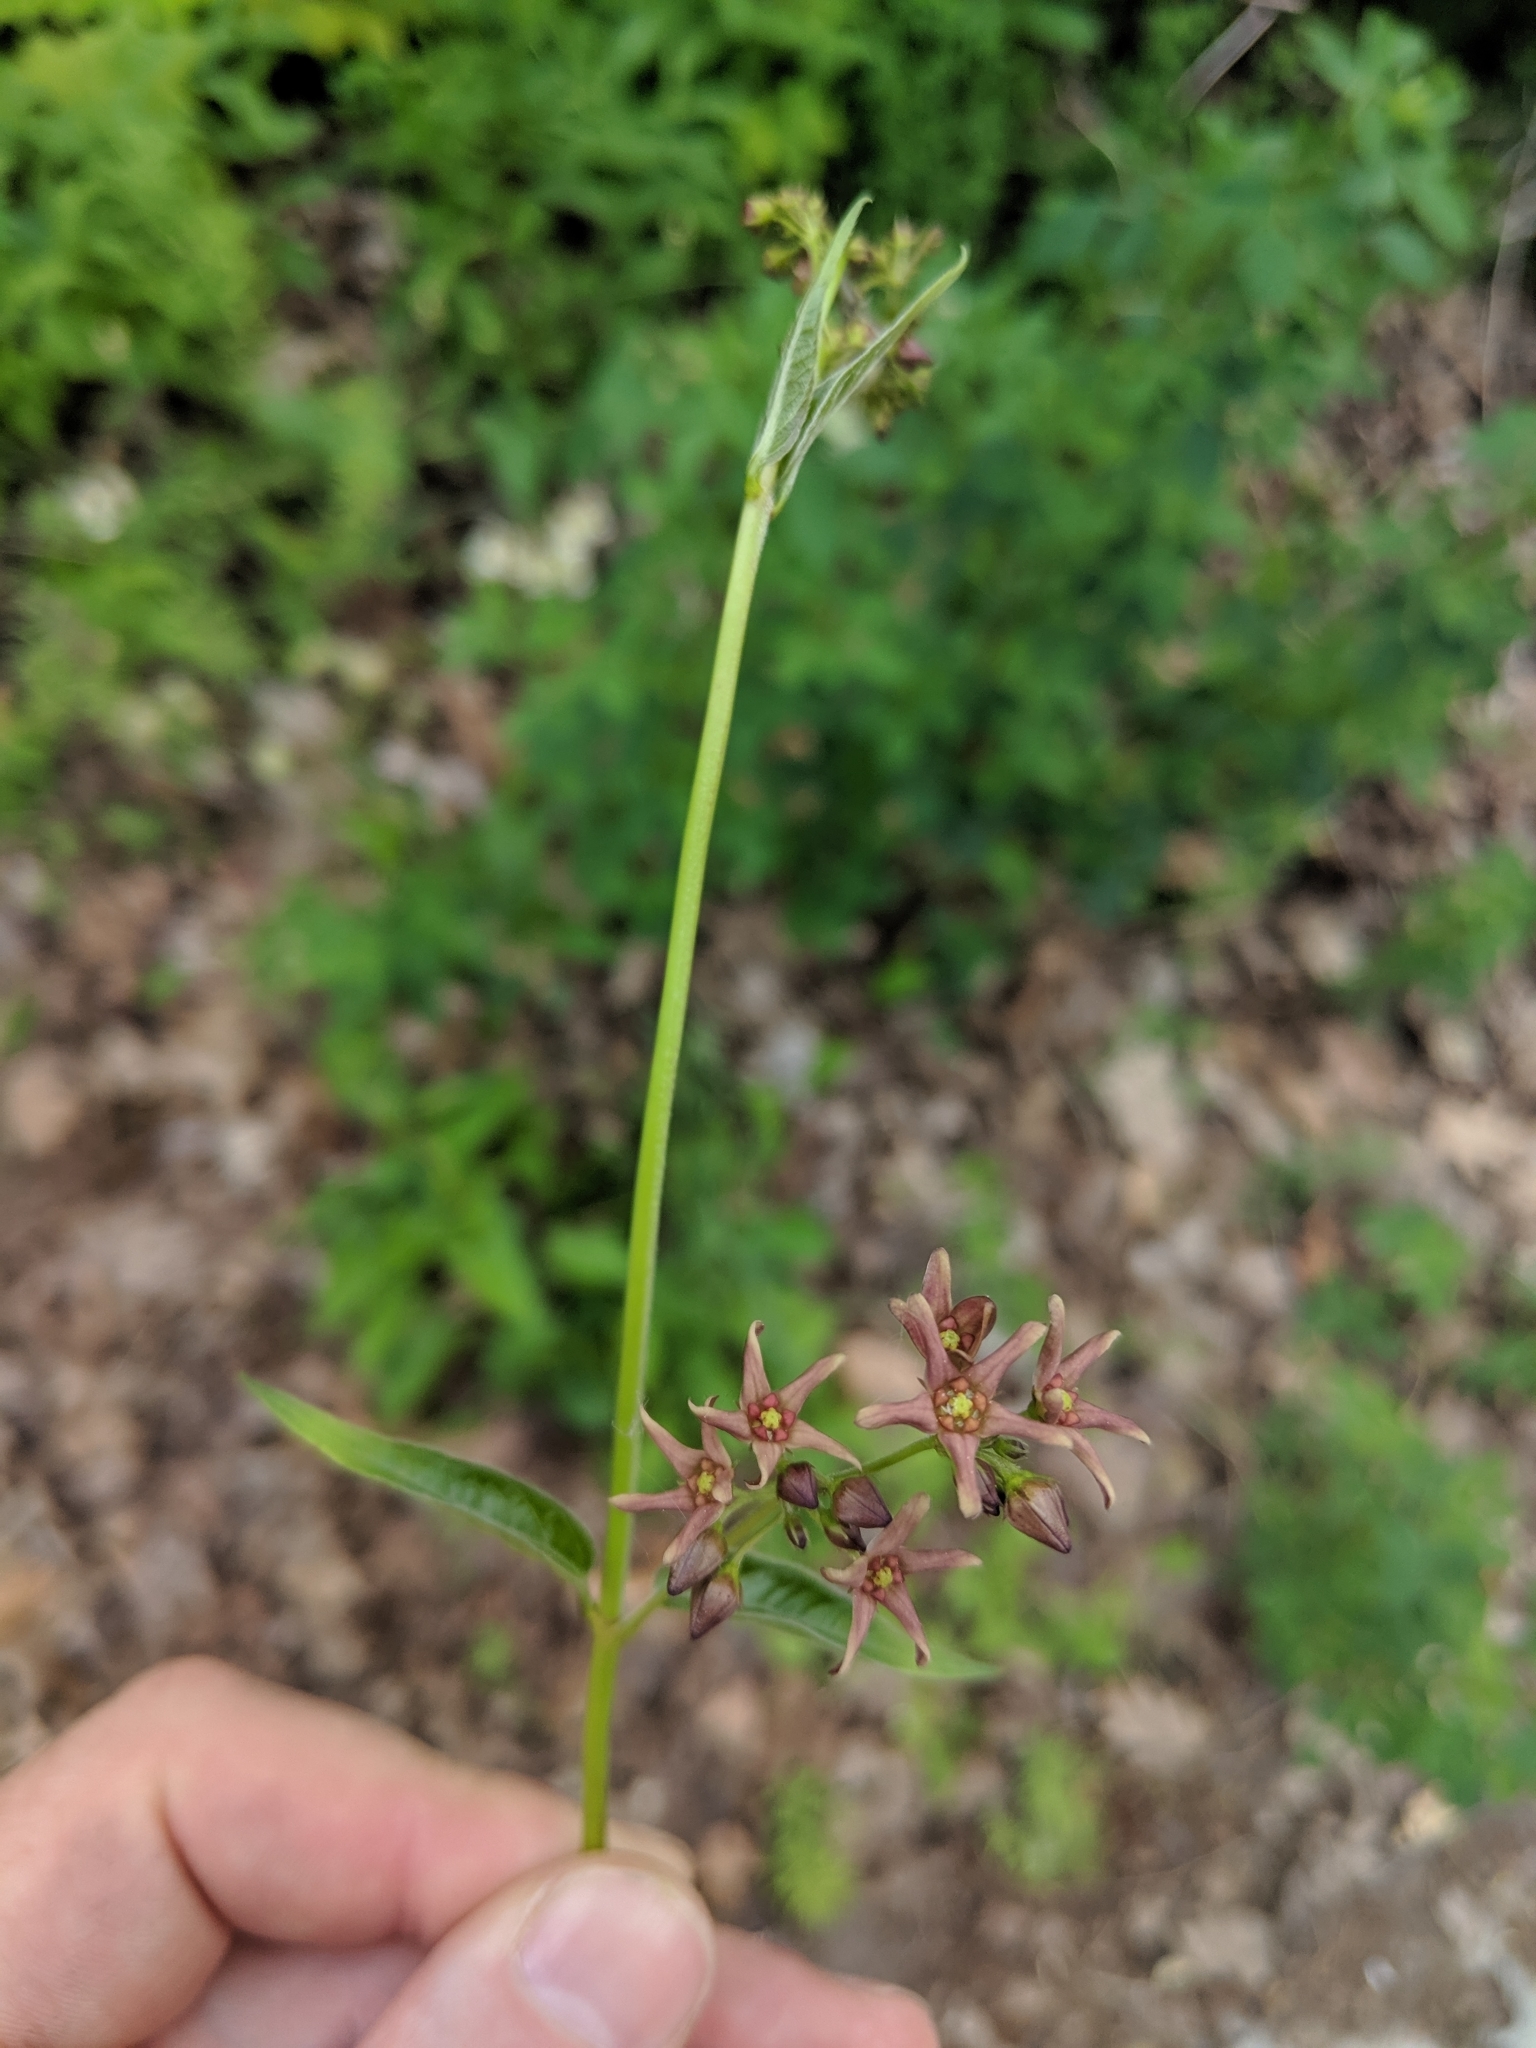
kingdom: Plantae
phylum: Tracheophyta
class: Magnoliopsida
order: Gentianales
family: Apocynaceae
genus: Vincetoxicum
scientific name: Vincetoxicum rossicum
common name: Dog-strangling vine
